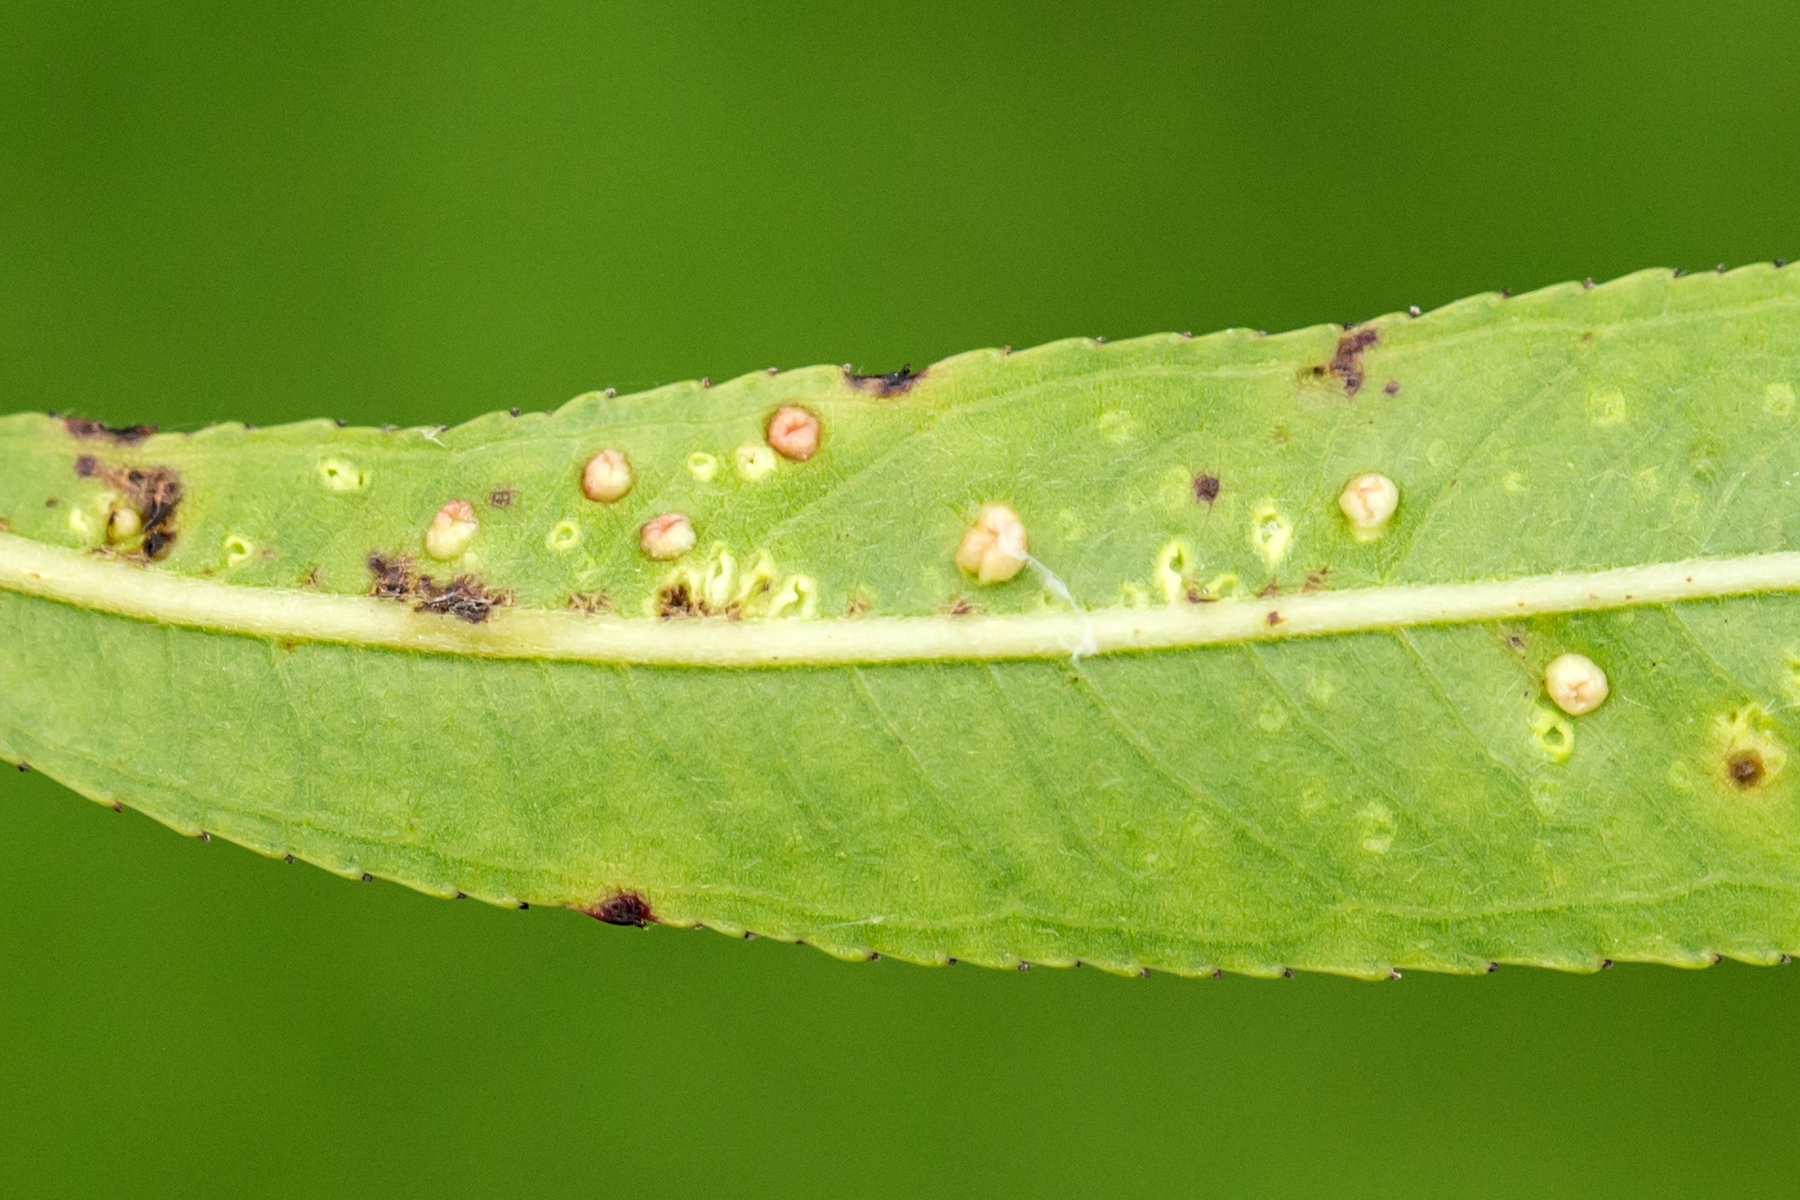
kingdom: Animalia
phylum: Arthropoda
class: Arachnida
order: Trombidiformes
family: Eriophyidae
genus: Aculus
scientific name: Aculus tetanothrix
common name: Willow bead gall mite
